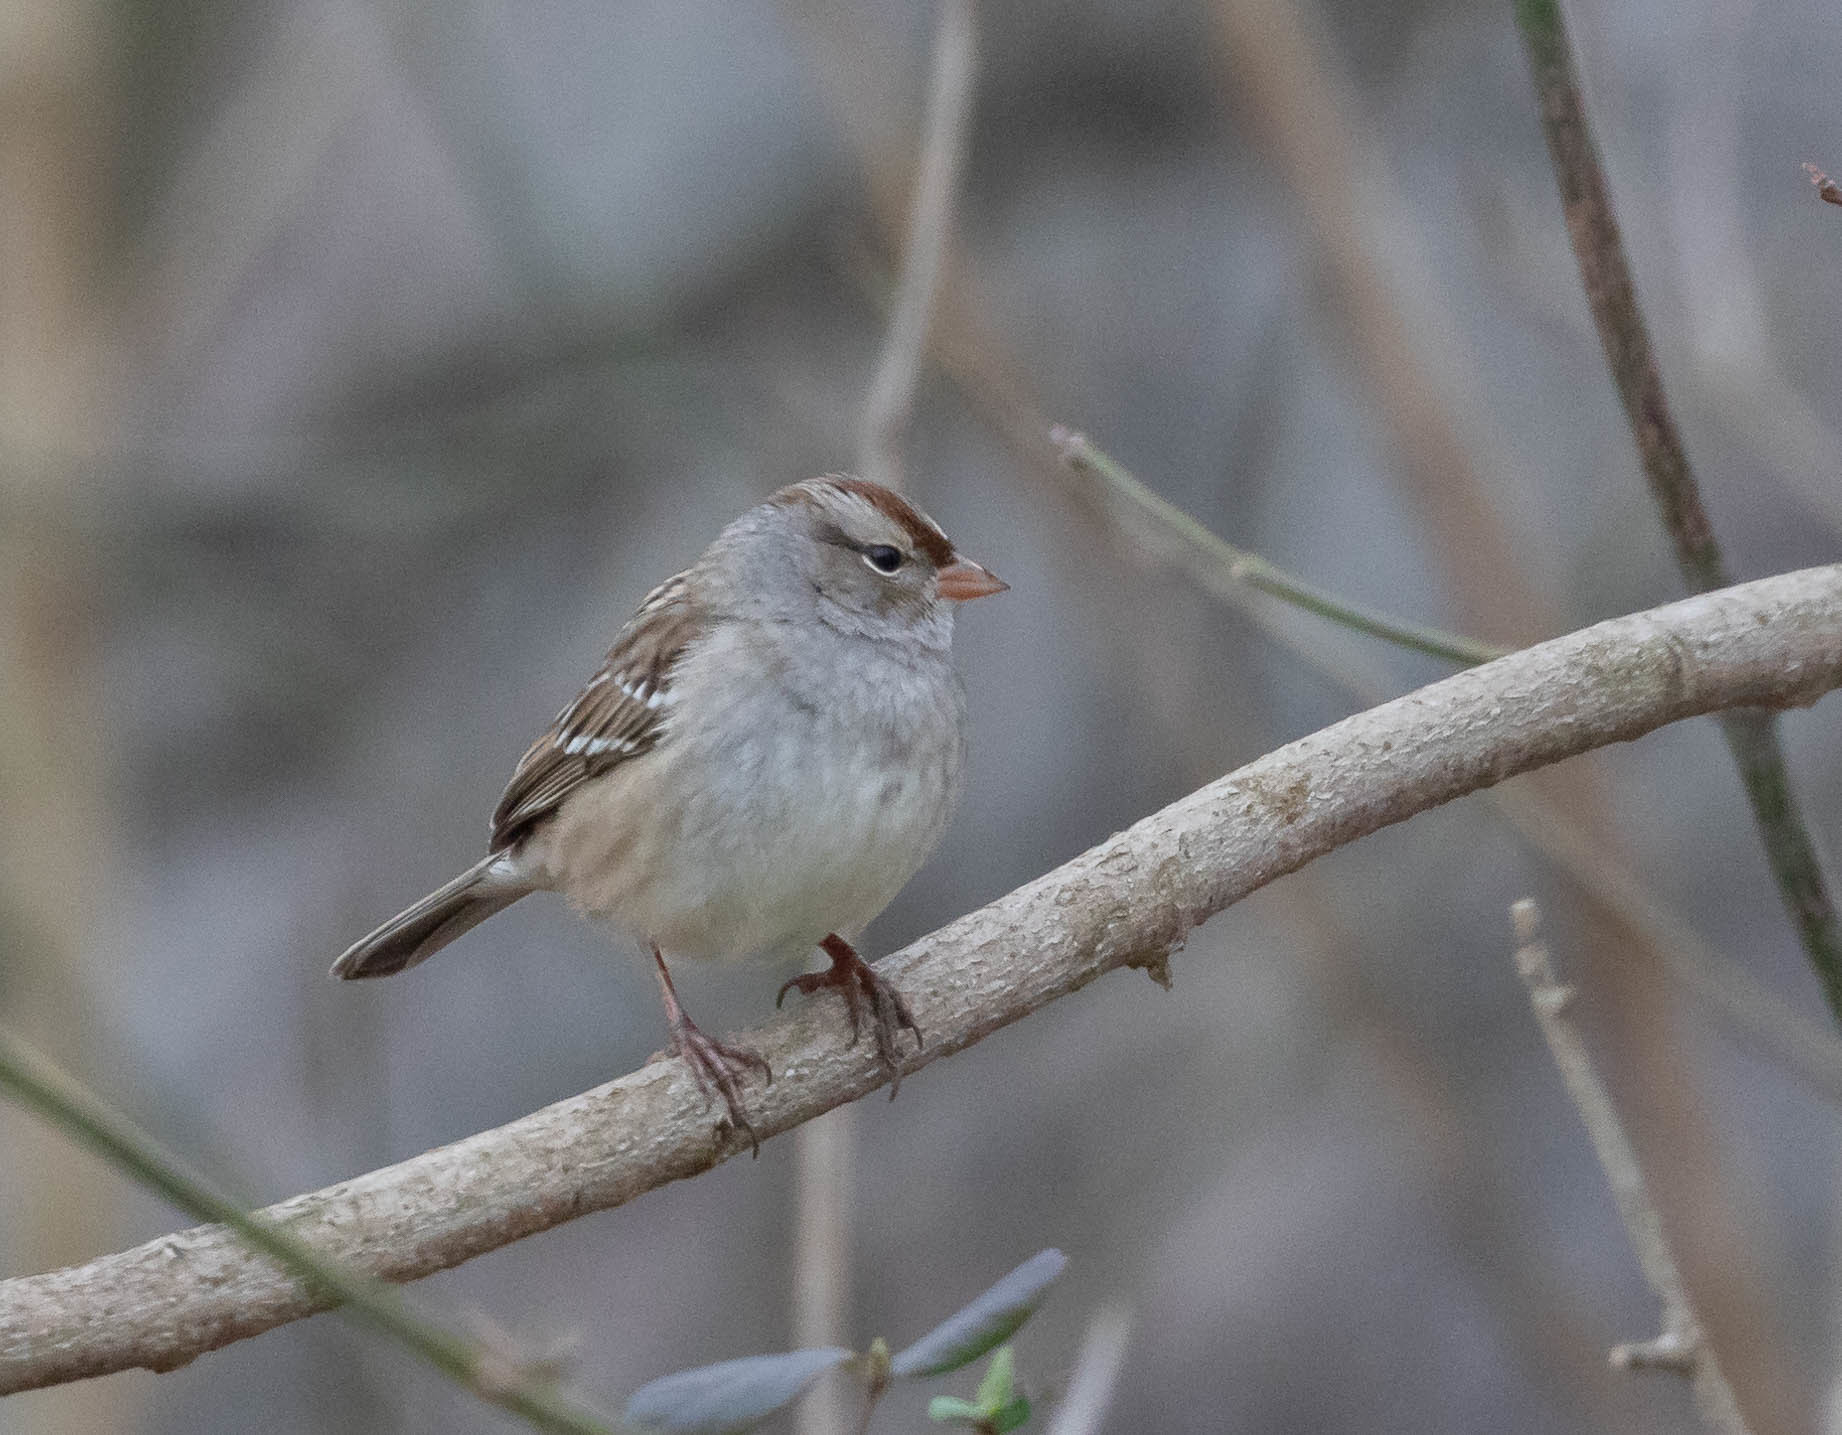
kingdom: Animalia
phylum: Chordata
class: Aves
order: Passeriformes
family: Passerellidae
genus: Zonotrichia
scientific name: Zonotrichia leucophrys
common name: White-crowned sparrow
